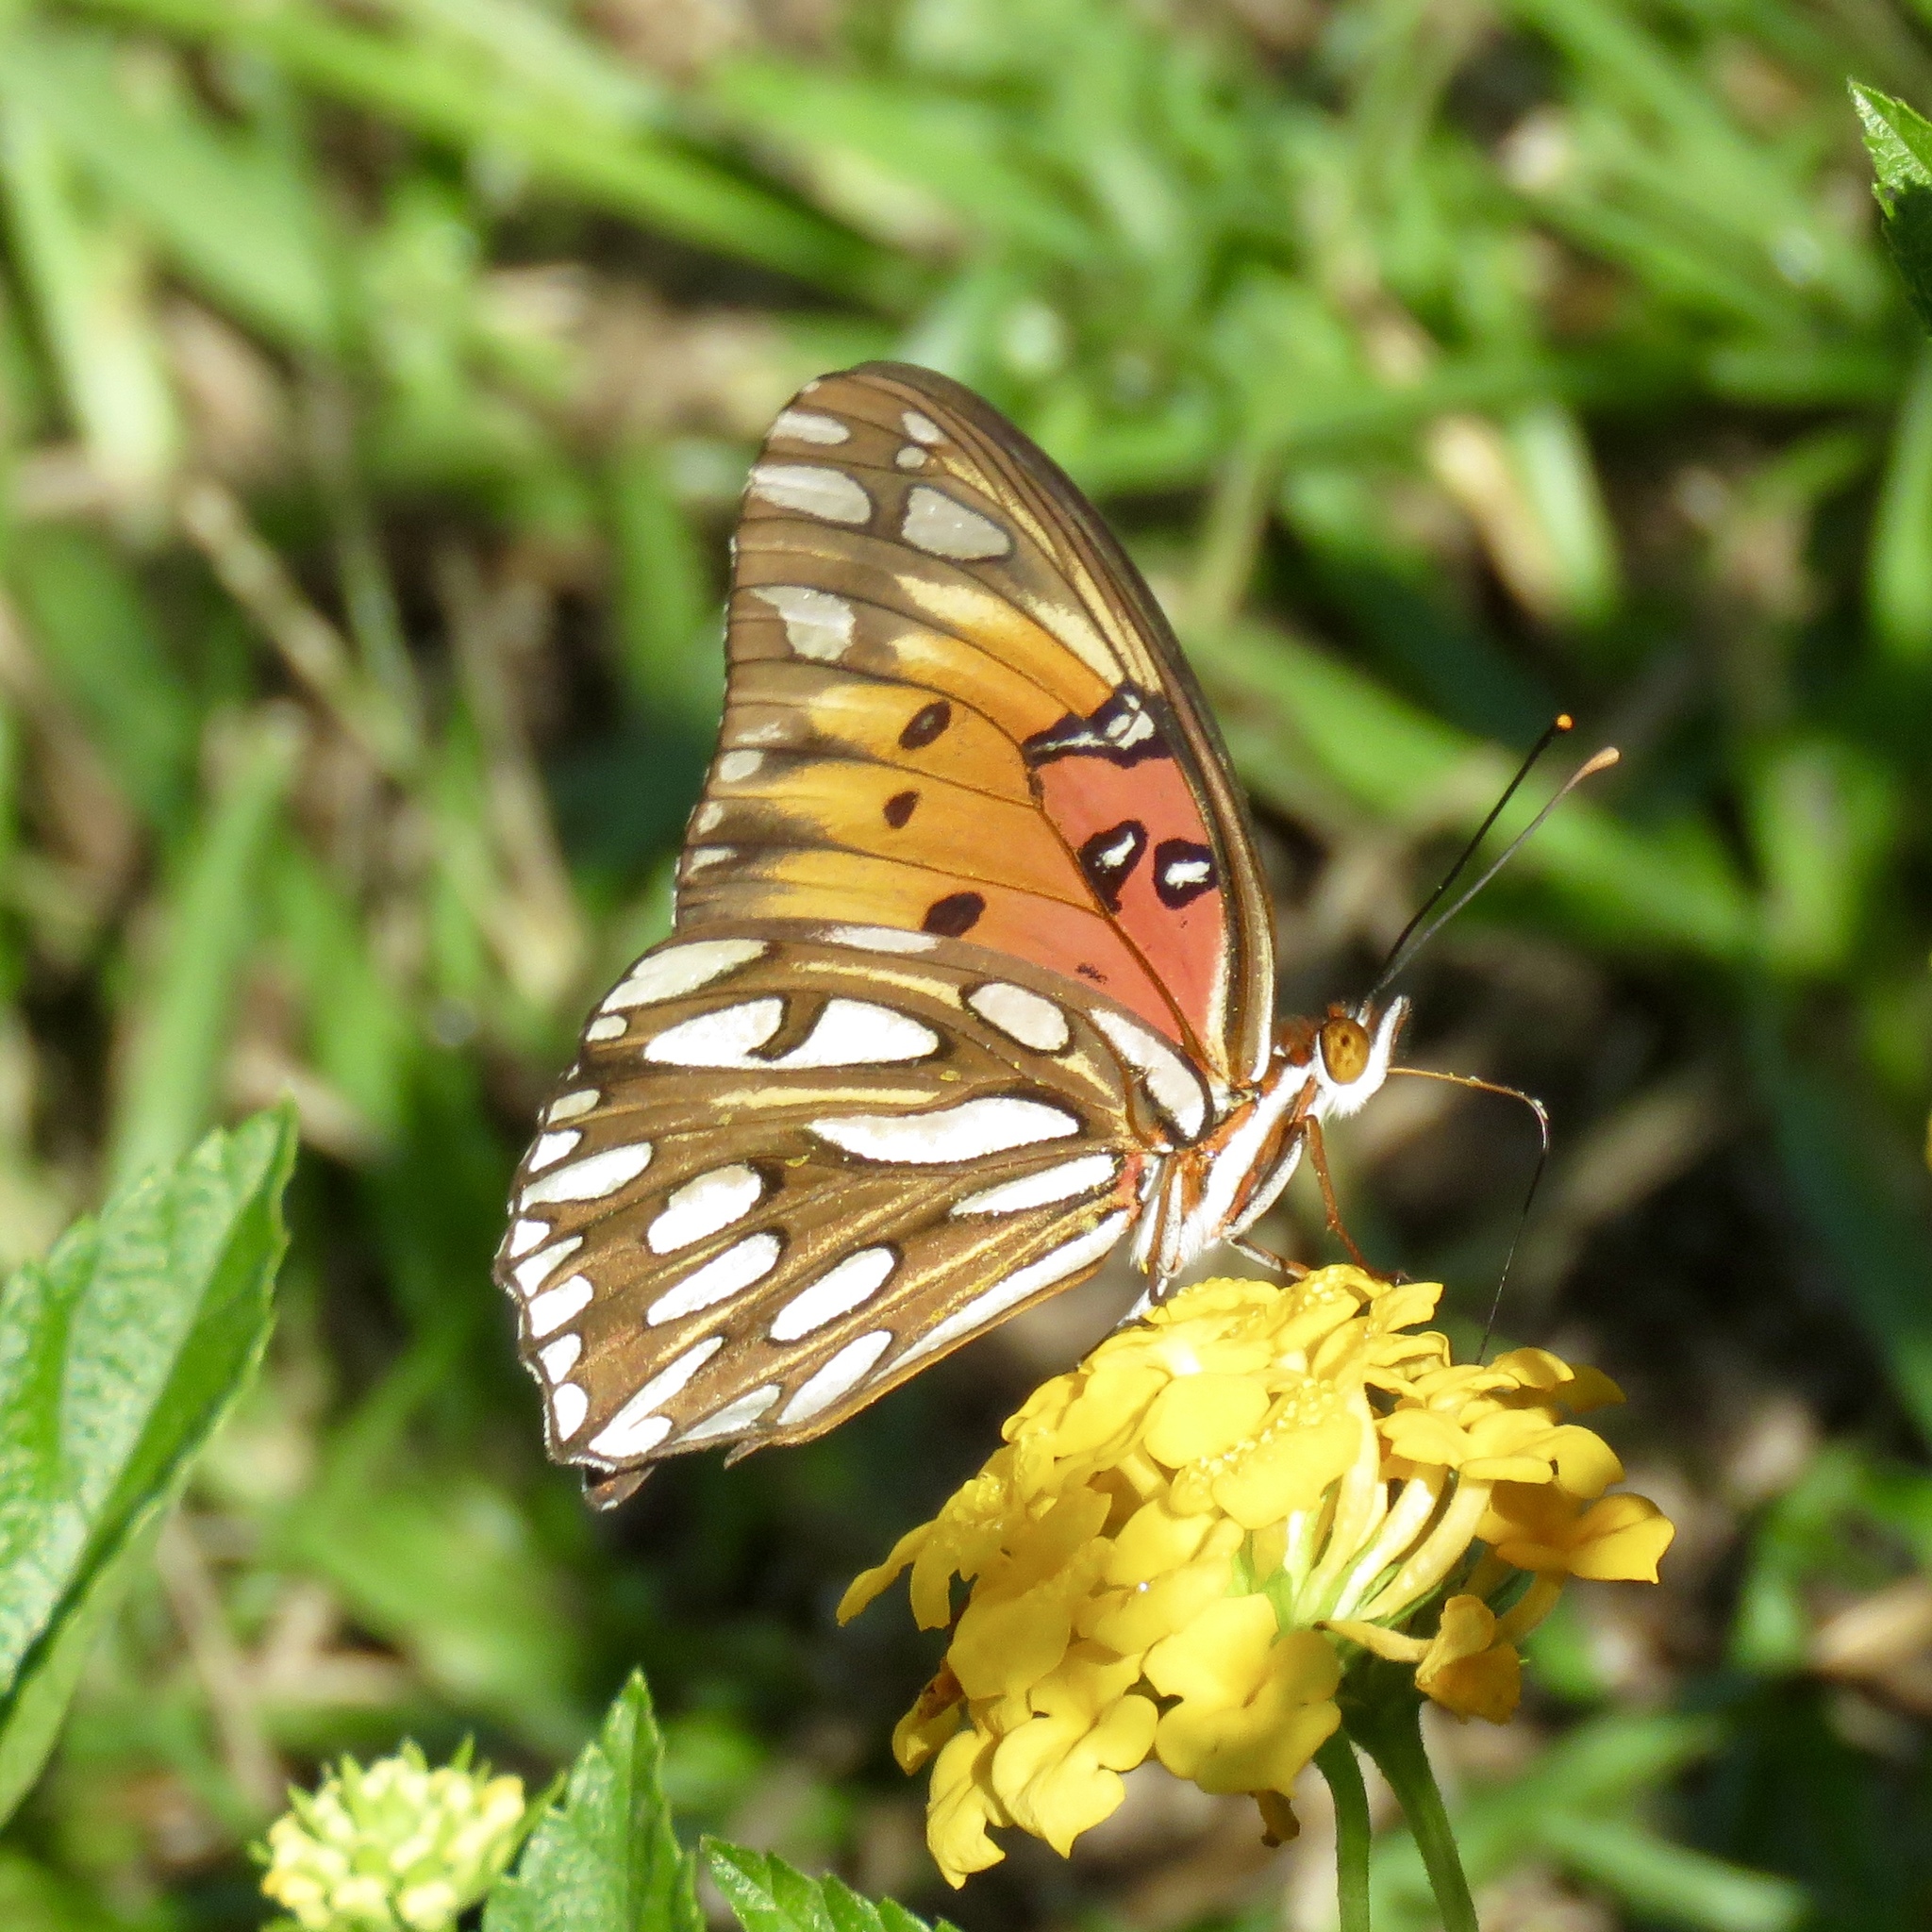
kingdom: Animalia
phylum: Arthropoda
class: Insecta
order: Lepidoptera
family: Nymphalidae
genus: Dione
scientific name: Dione vanillae
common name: Gulf fritillary
